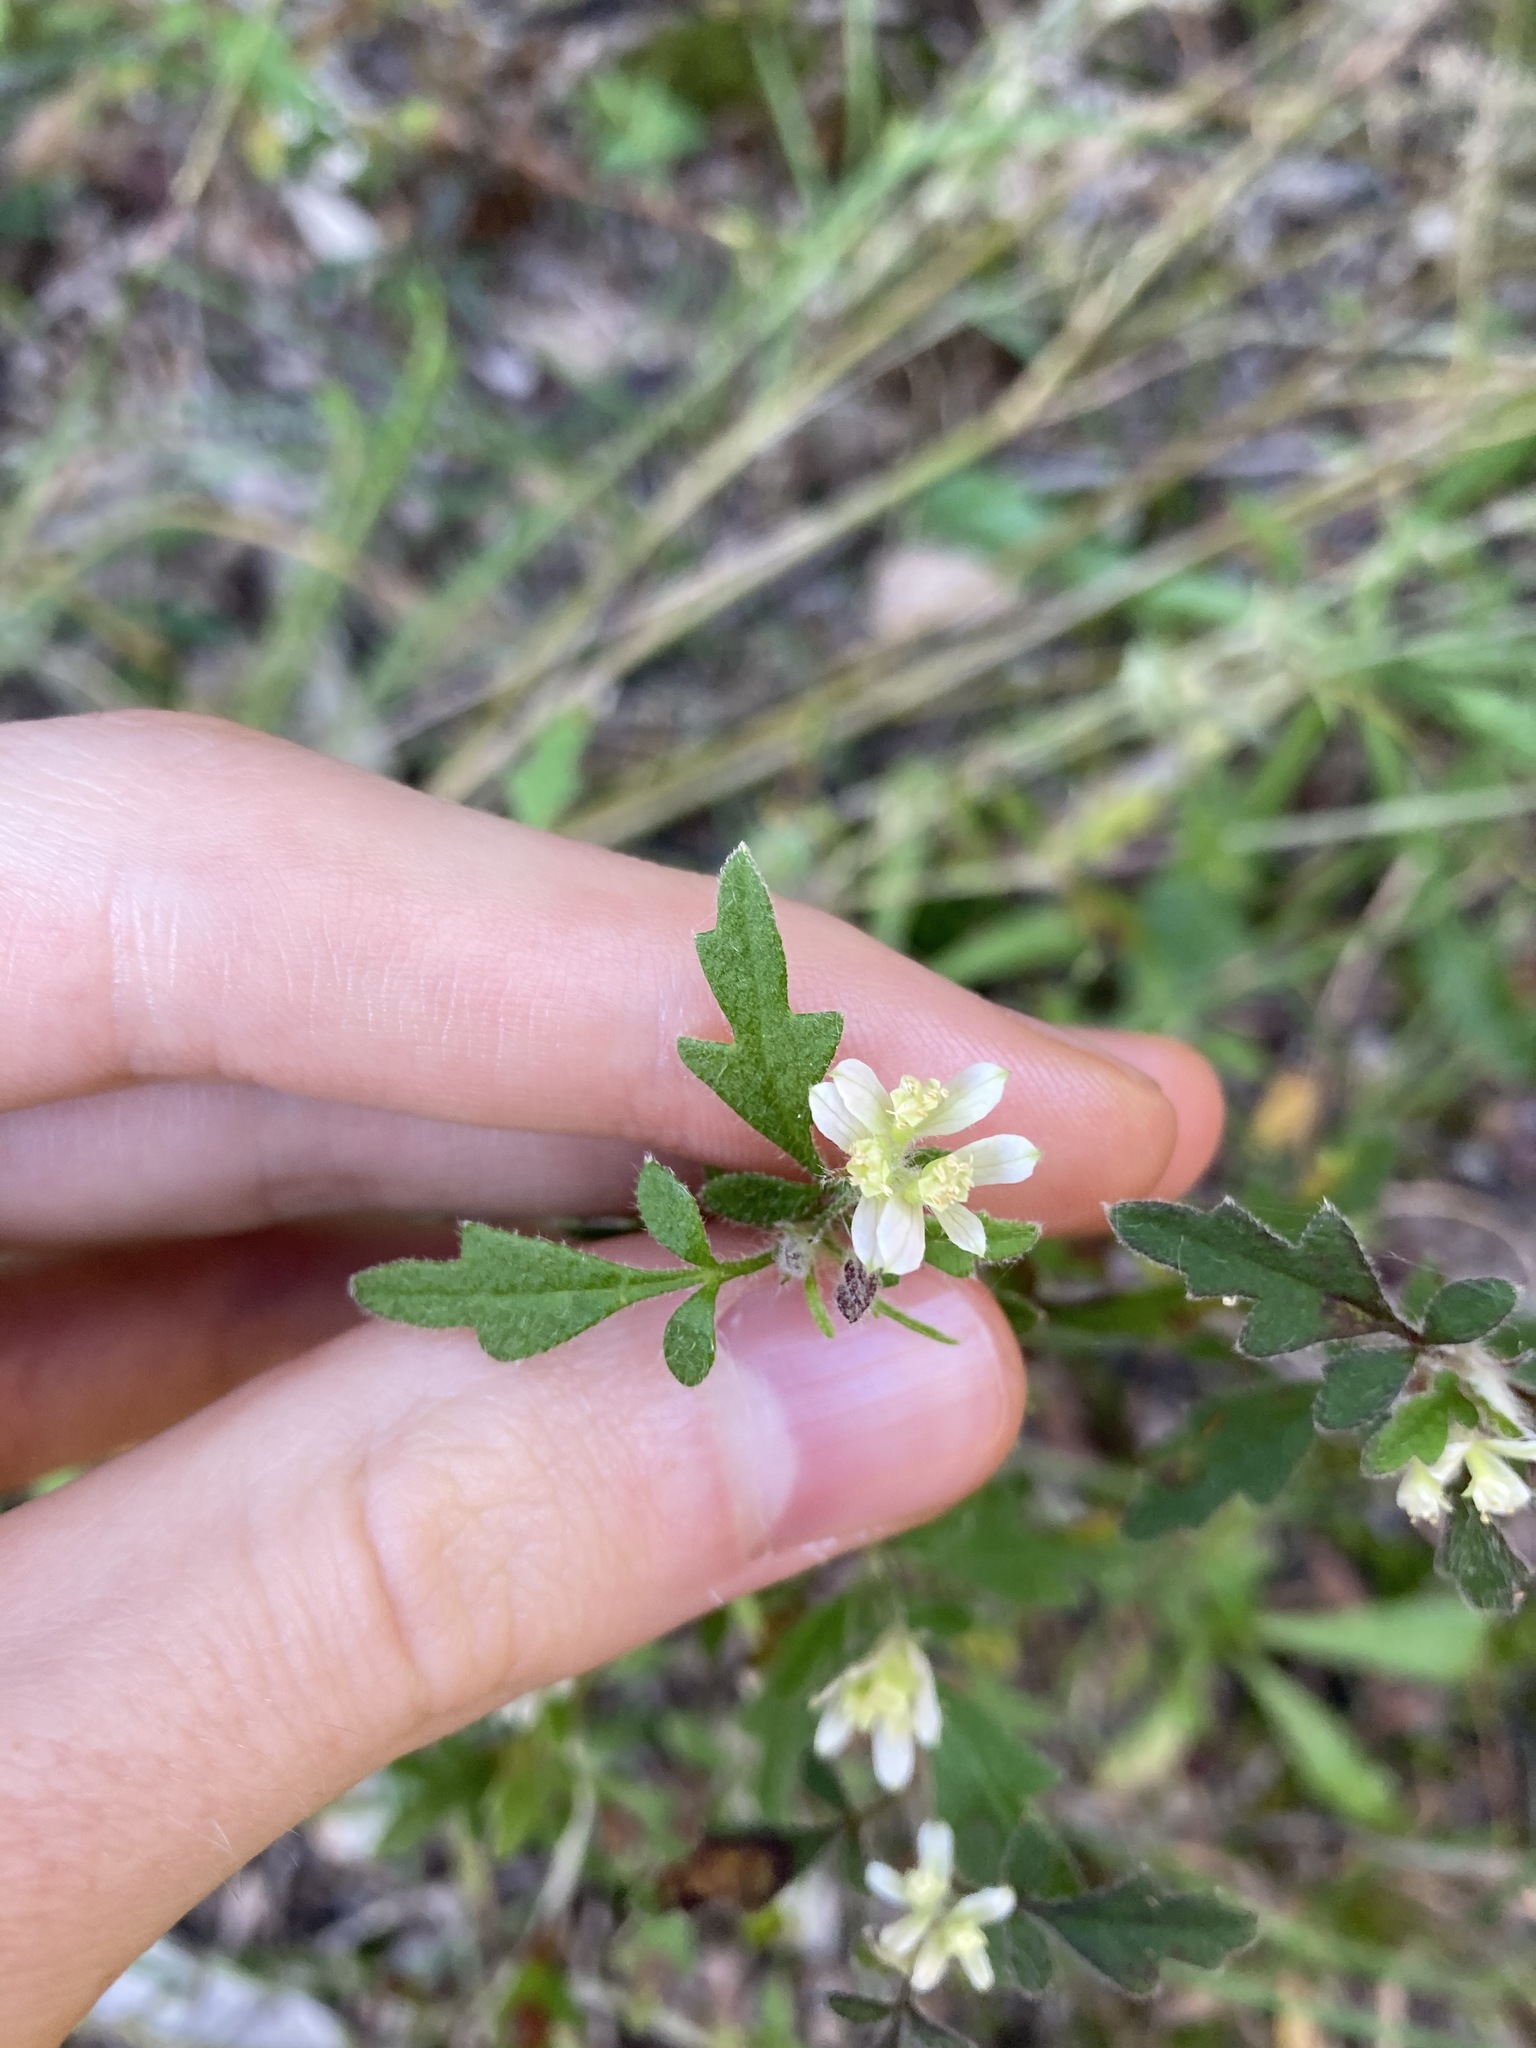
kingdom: Plantae
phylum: Tracheophyta
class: Magnoliopsida
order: Apiales
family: Apiaceae
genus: Xanthosia
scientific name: Xanthosia pilosa
